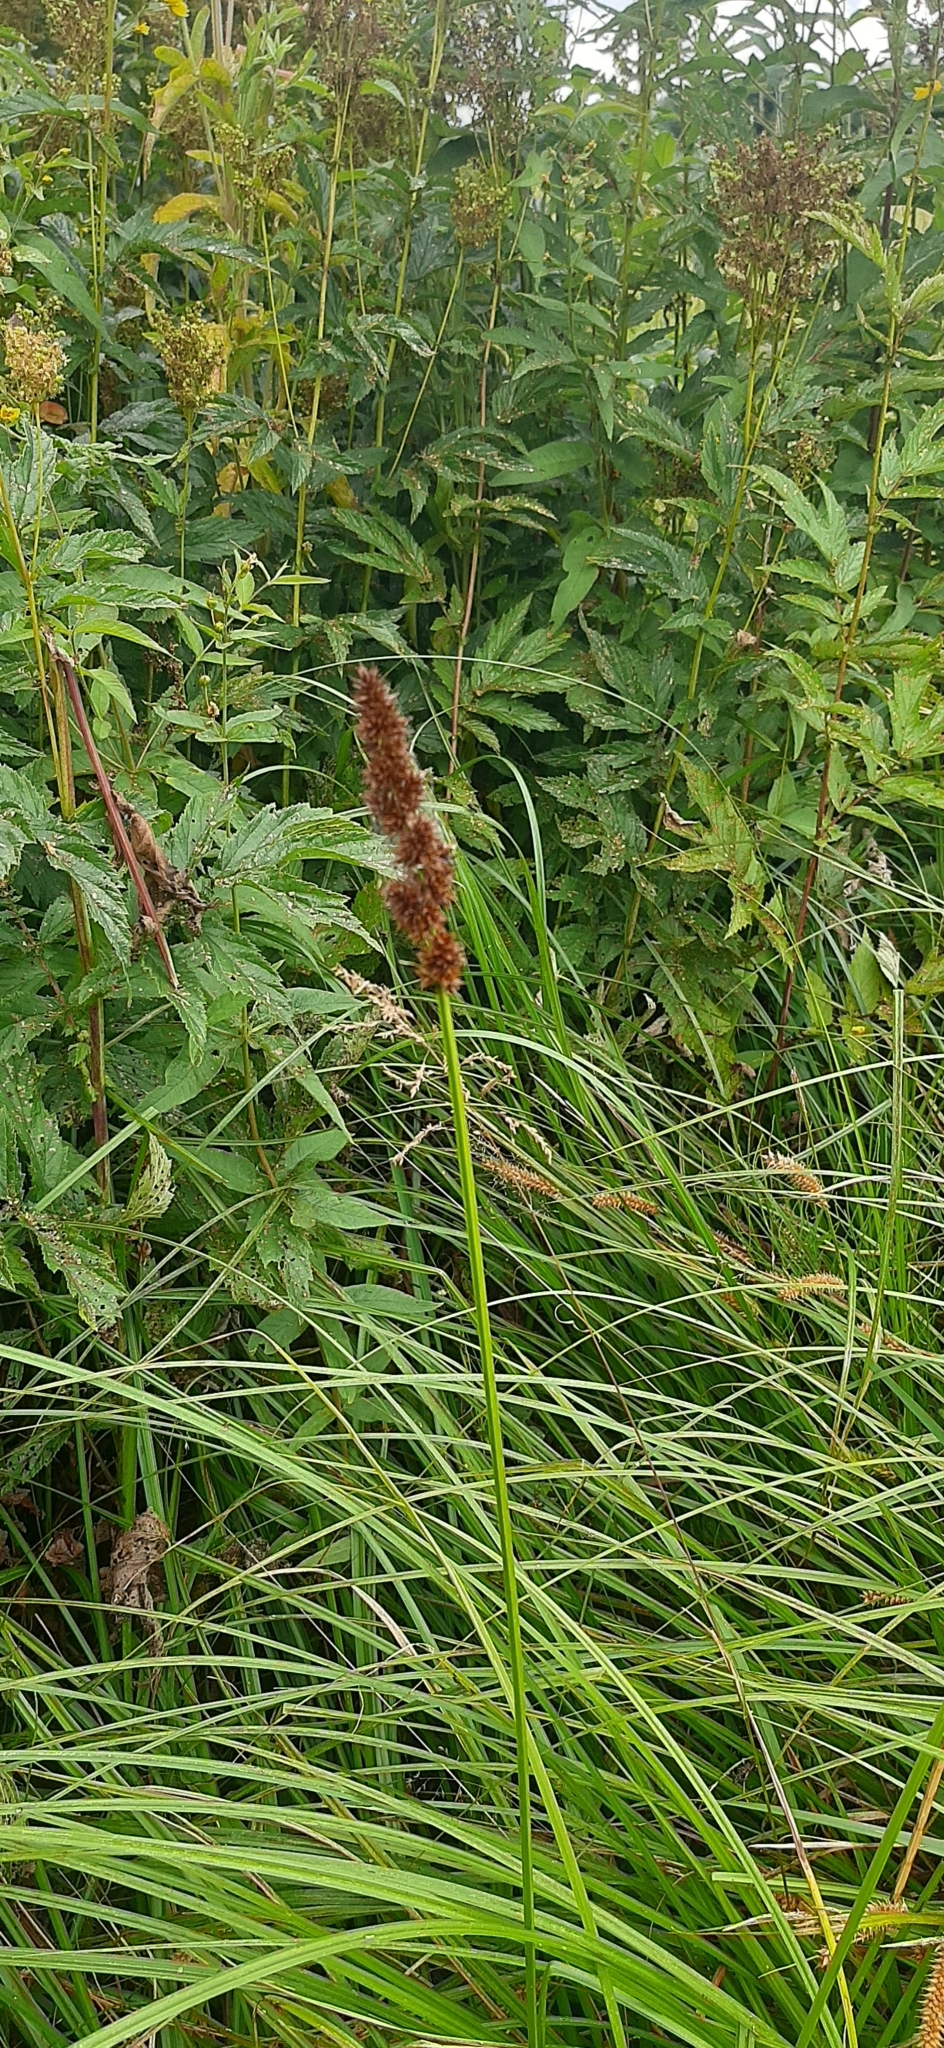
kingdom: Plantae
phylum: Tracheophyta
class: Liliopsida
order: Poales
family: Cyperaceae
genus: Carex
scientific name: Carex vulpina
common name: True fox-sedge
